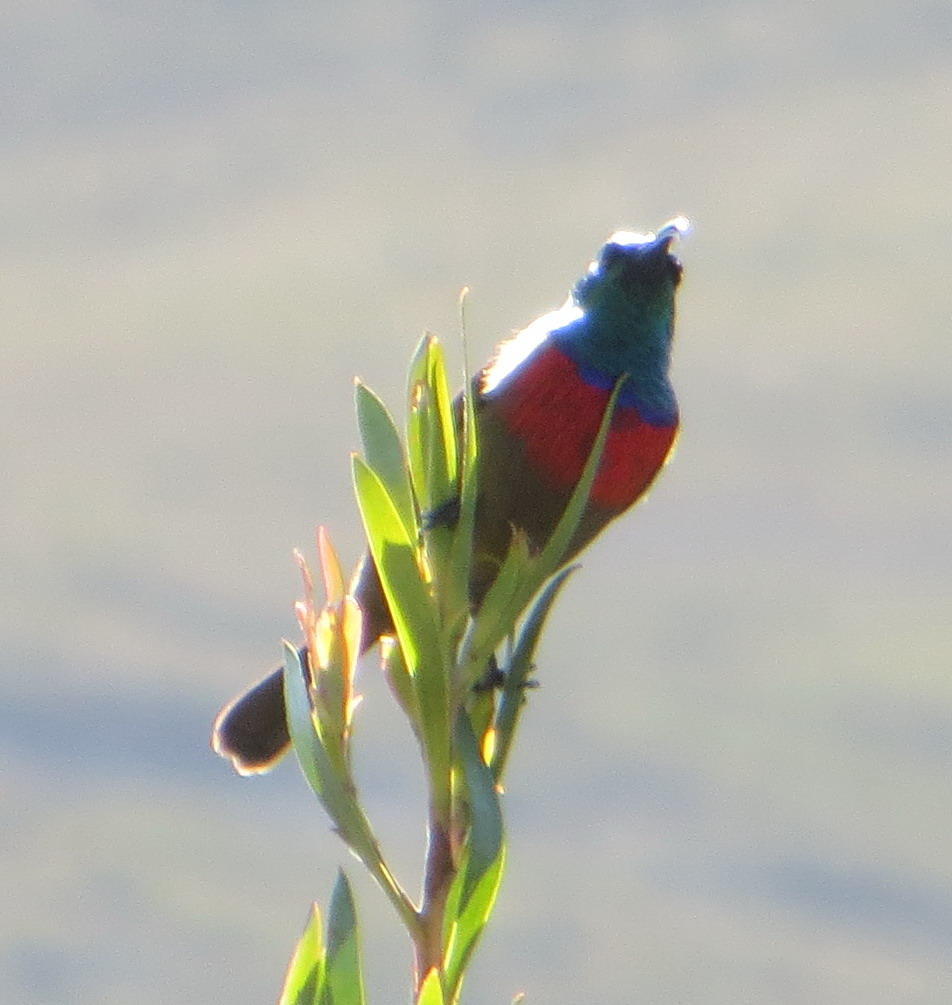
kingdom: Animalia
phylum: Chordata
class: Aves
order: Passeriformes
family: Nectariniidae
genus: Cinnyris
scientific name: Cinnyris afer
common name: Greater double-collared sunbird
